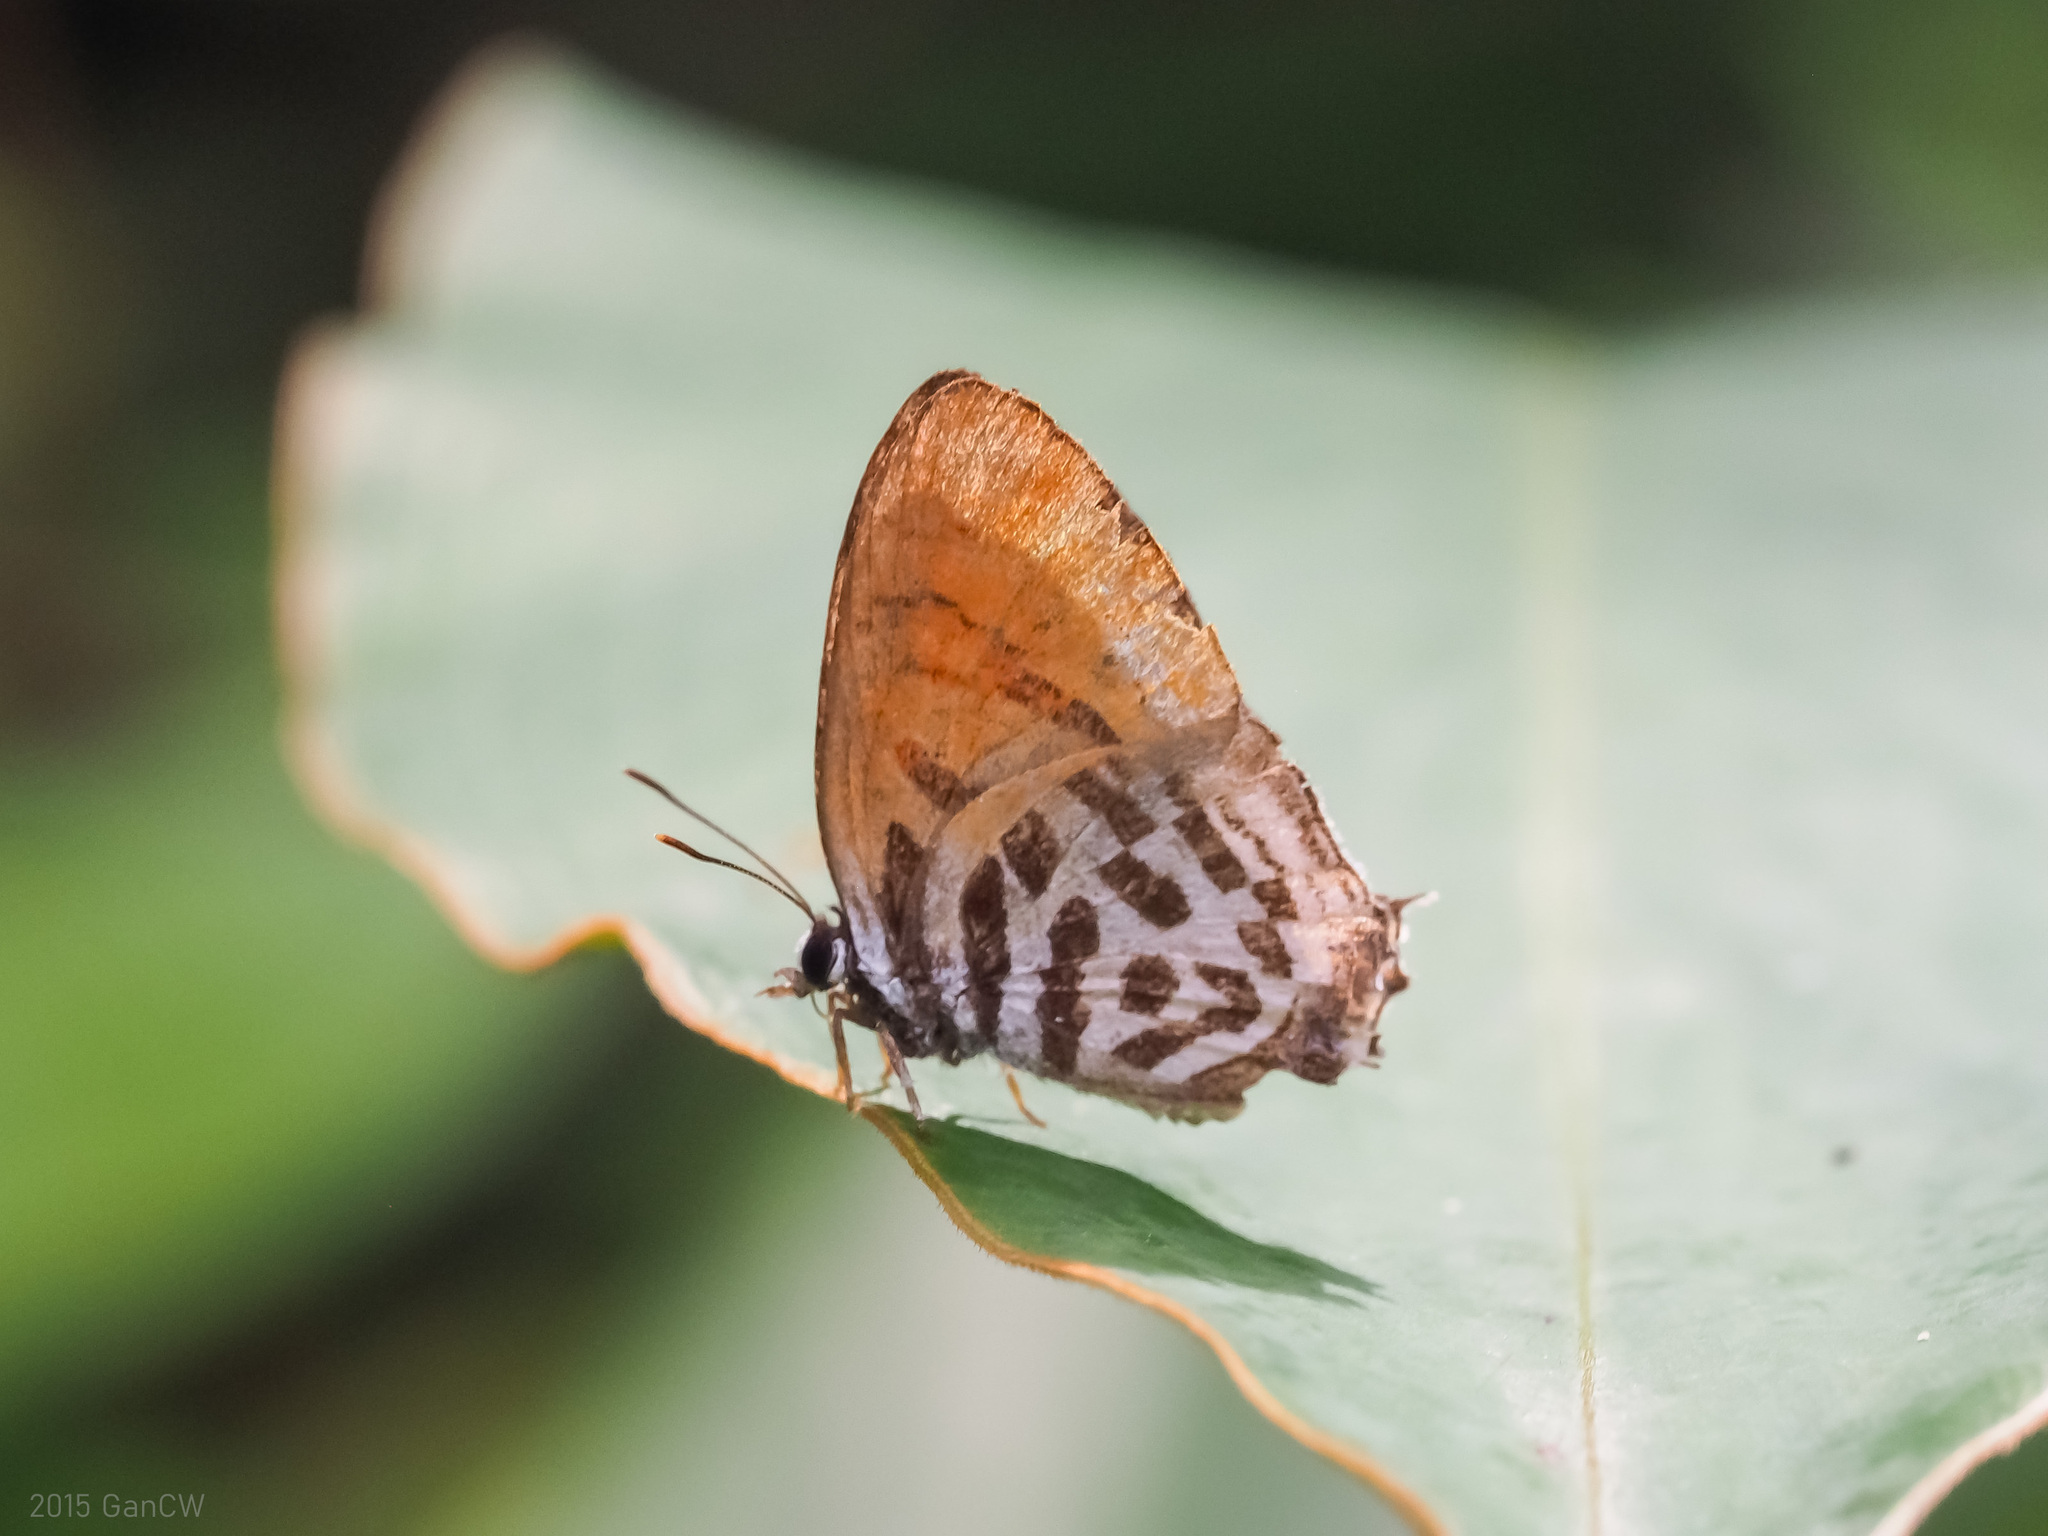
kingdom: Animalia
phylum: Arthropoda
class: Insecta
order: Lepidoptera
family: Lycaenidae
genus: Drupadia
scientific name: Drupadia ravindra
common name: Common posy
